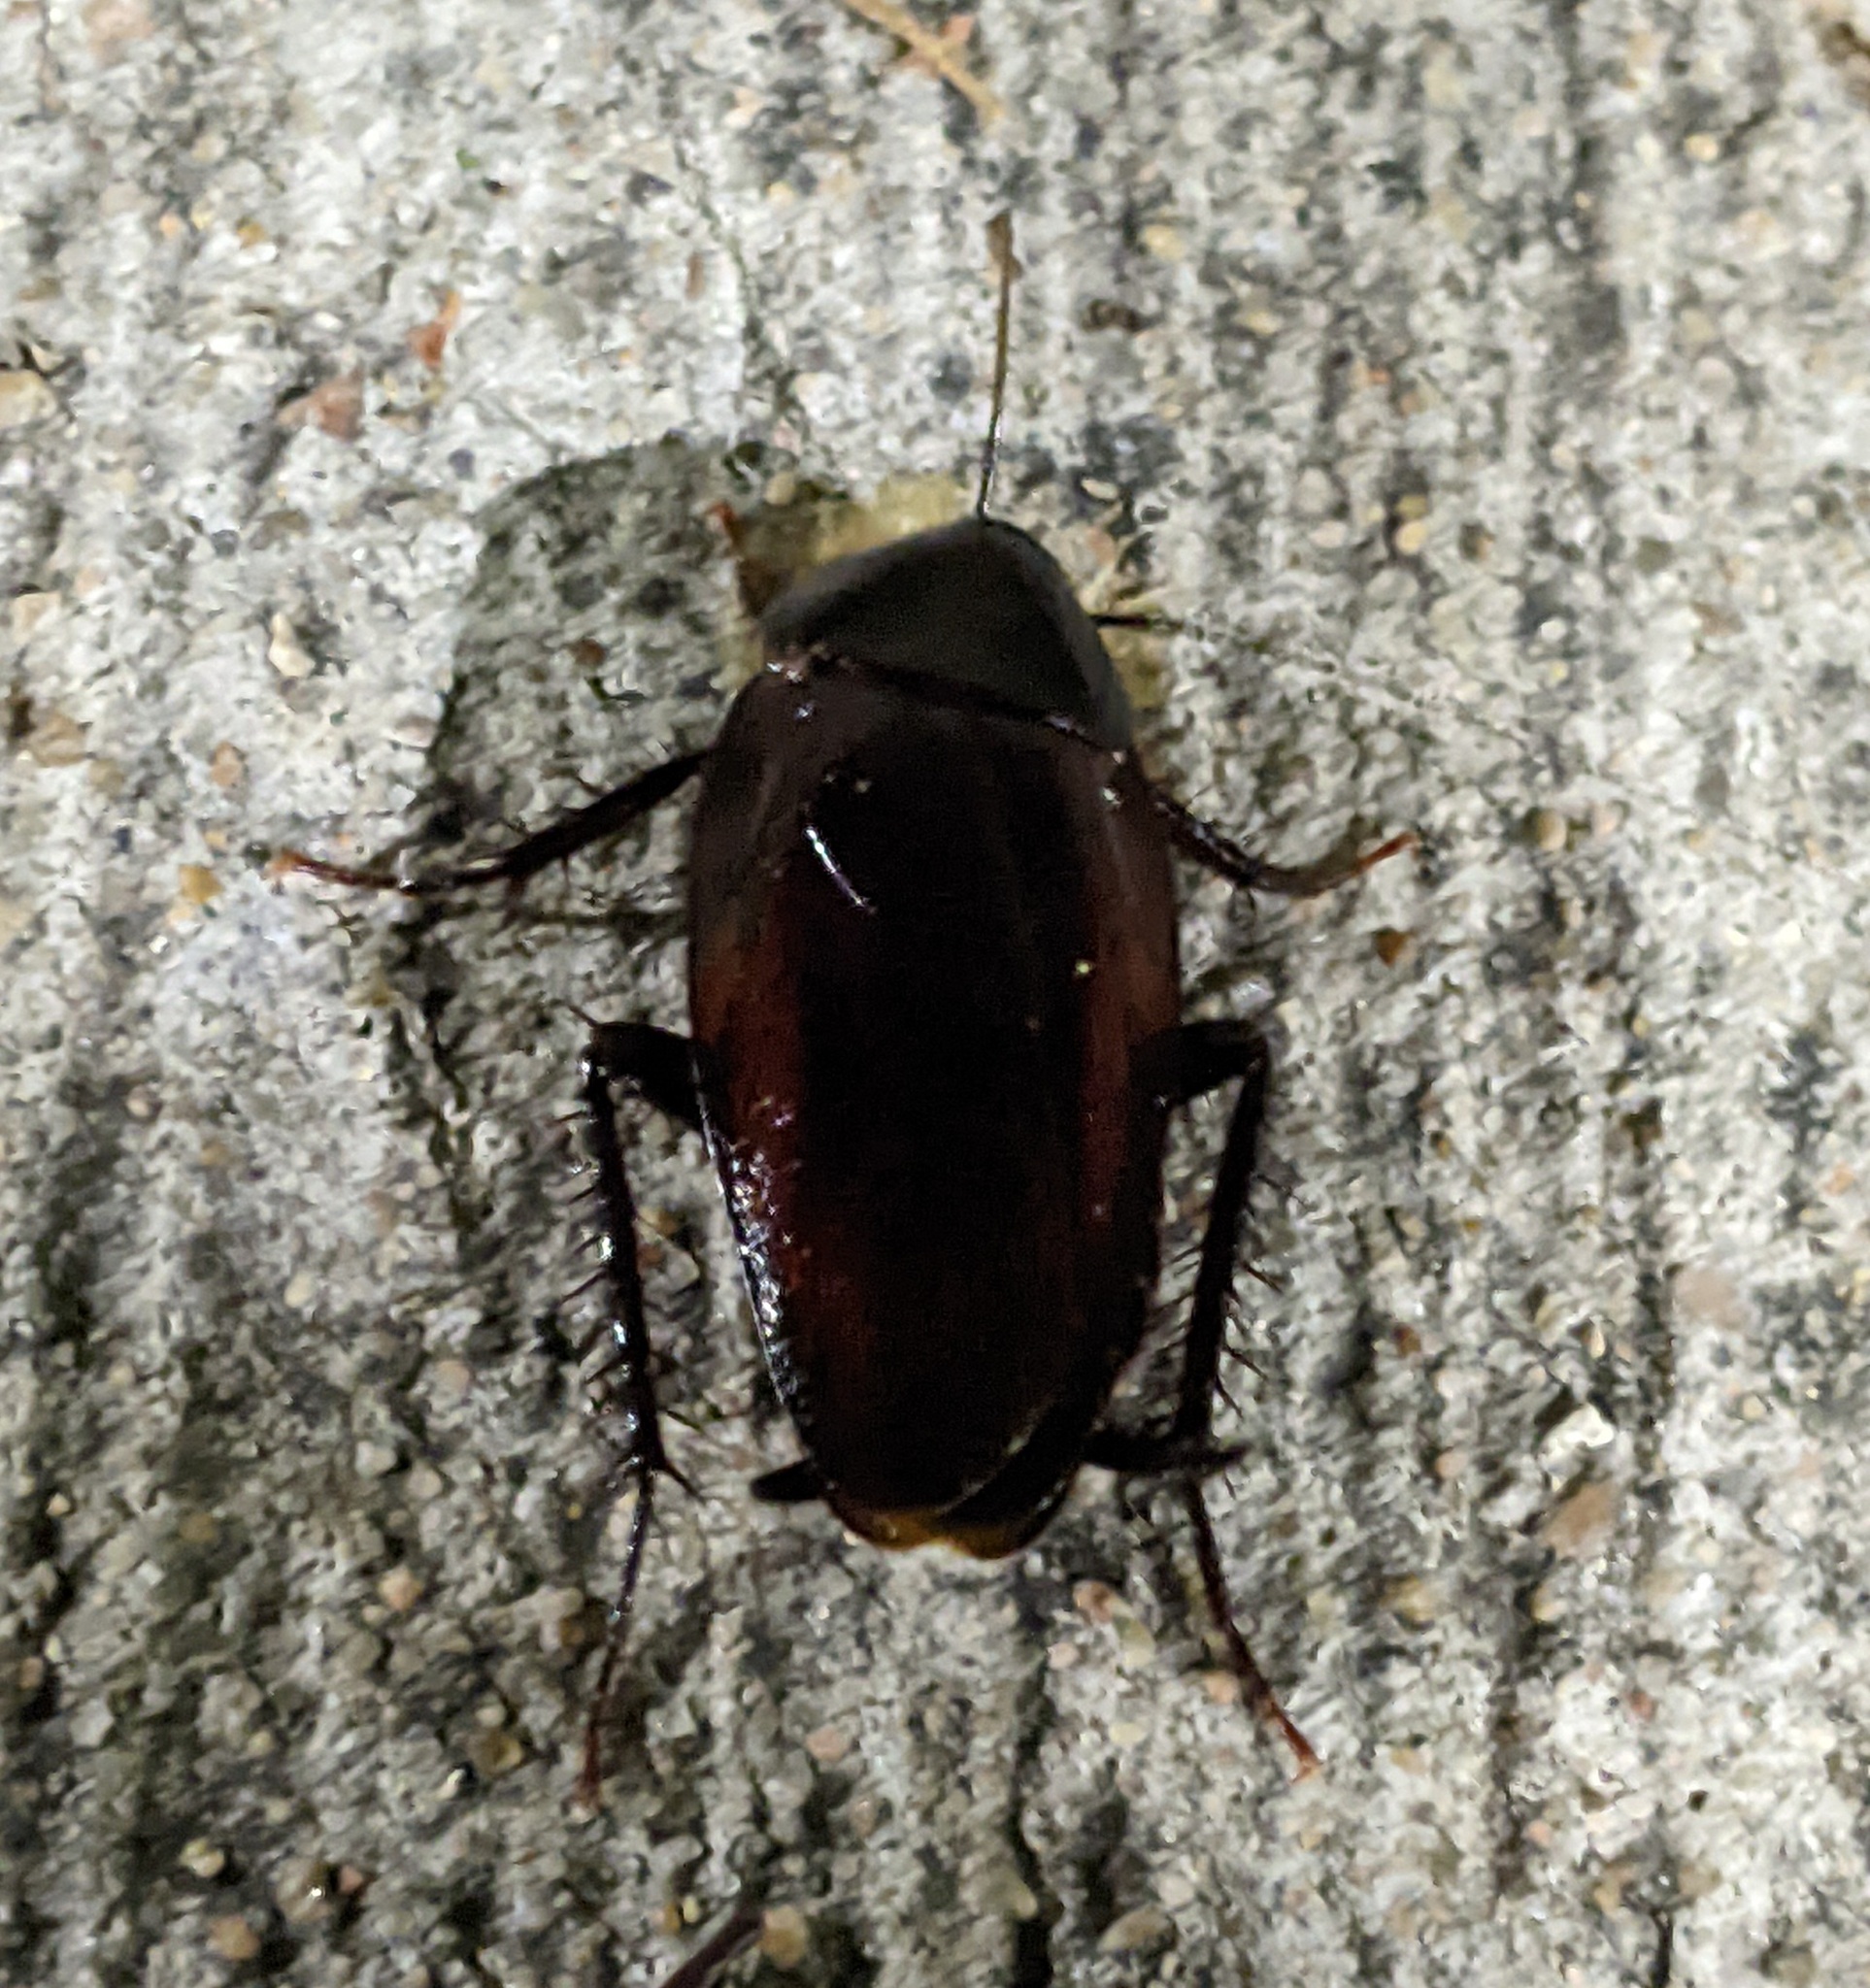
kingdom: Animalia
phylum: Arthropoda
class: Insecta
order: Blattodea
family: Blattidae
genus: Periplaneta
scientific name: Periplaneta fuliginosa
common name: Smokeybrown cockroad
